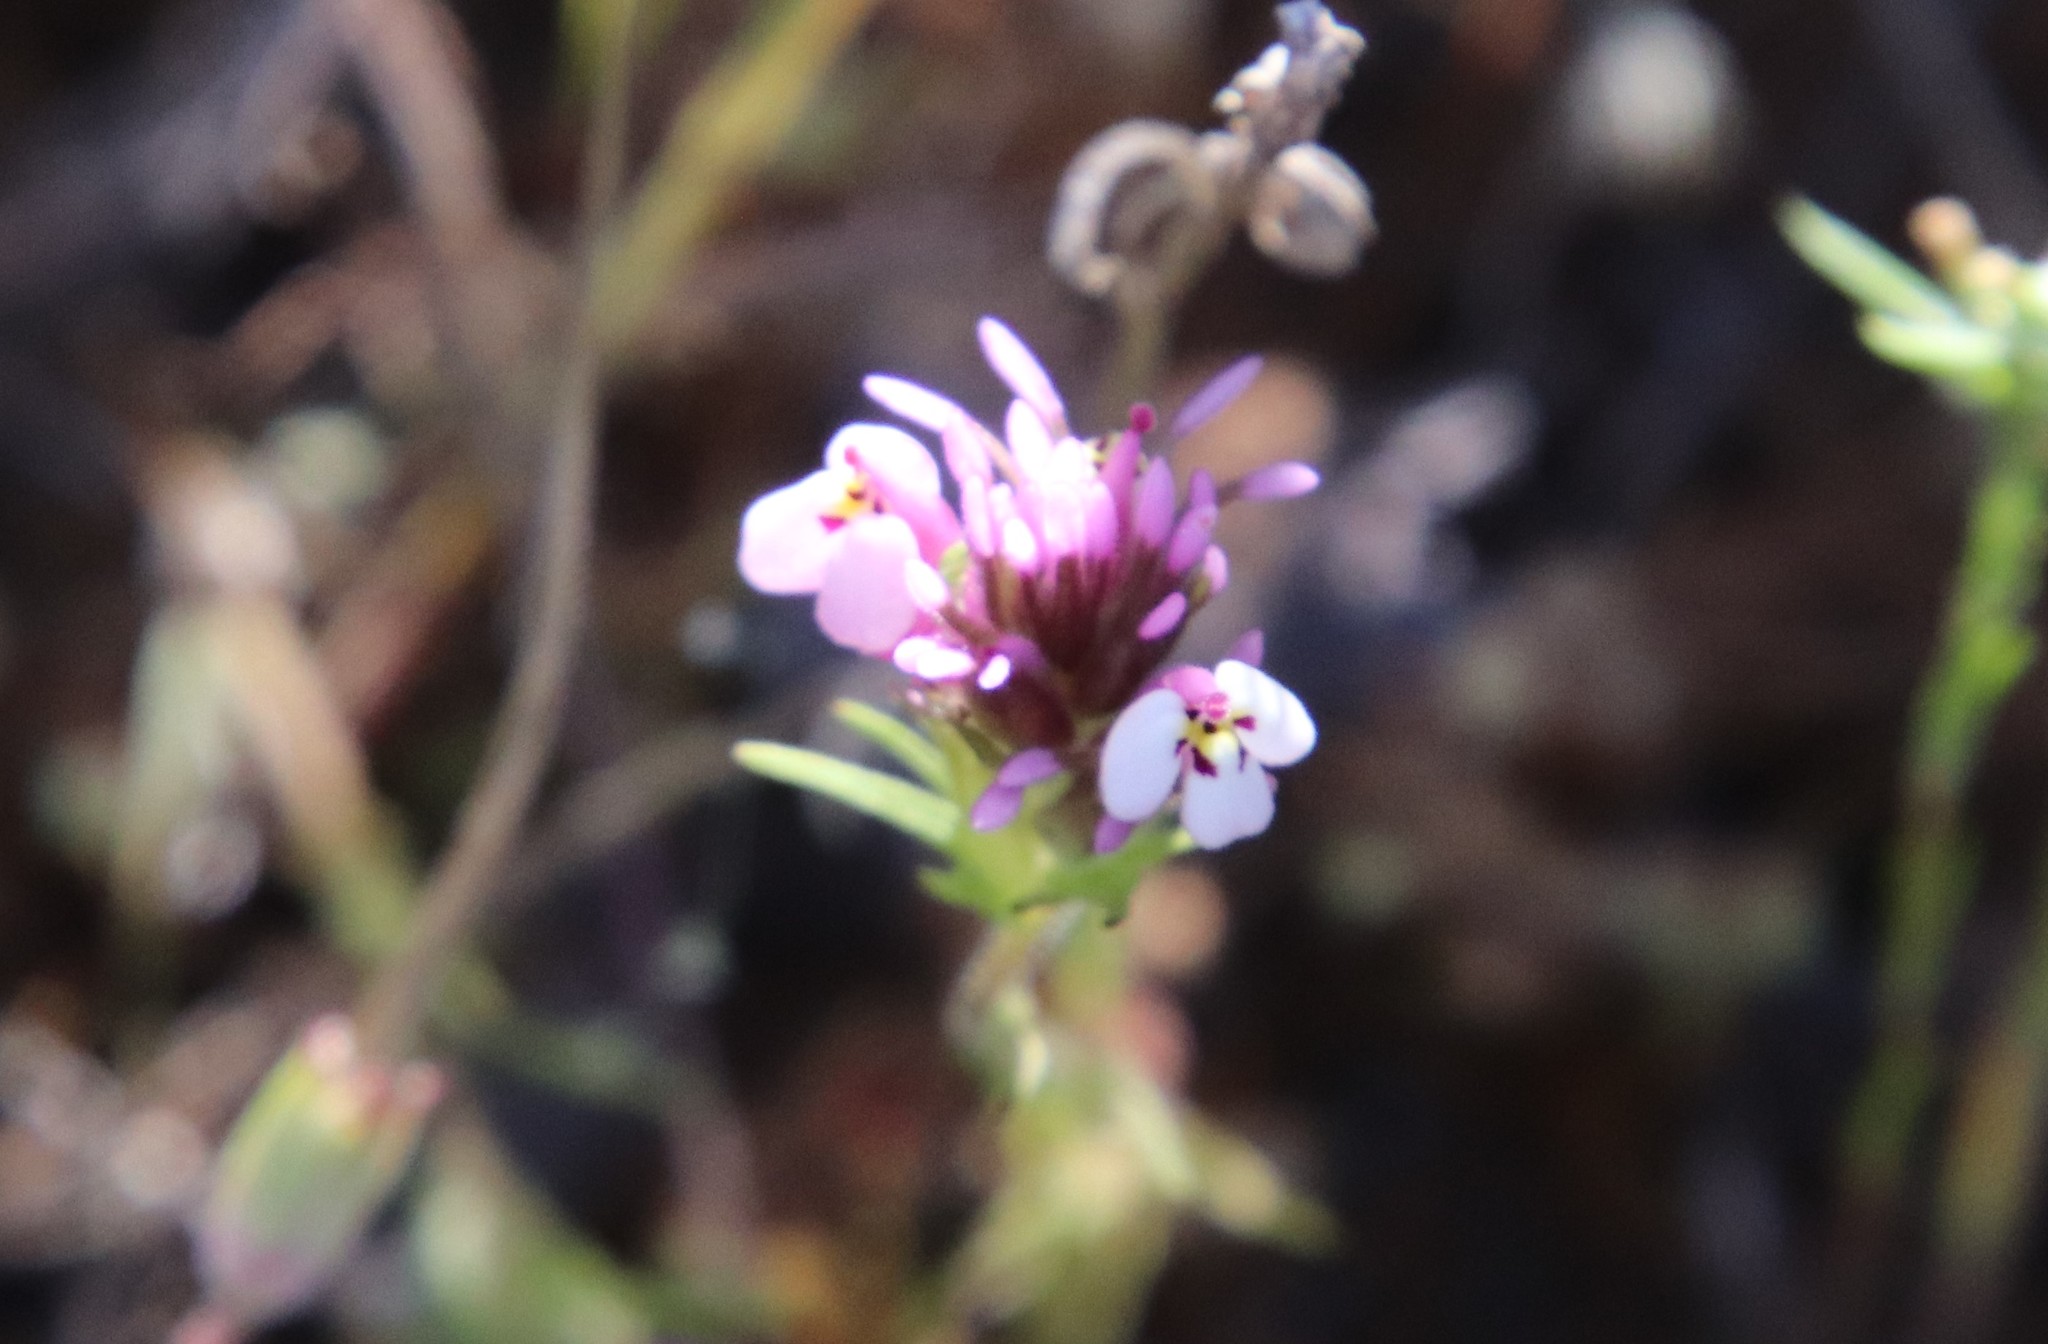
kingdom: Plantae
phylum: Tracheophyta
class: Magnoliopsida
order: Lamiales
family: Orobanchaceae
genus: Castilleja
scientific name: Castilleja densiflora
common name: Dense-flower indian paintbrush
